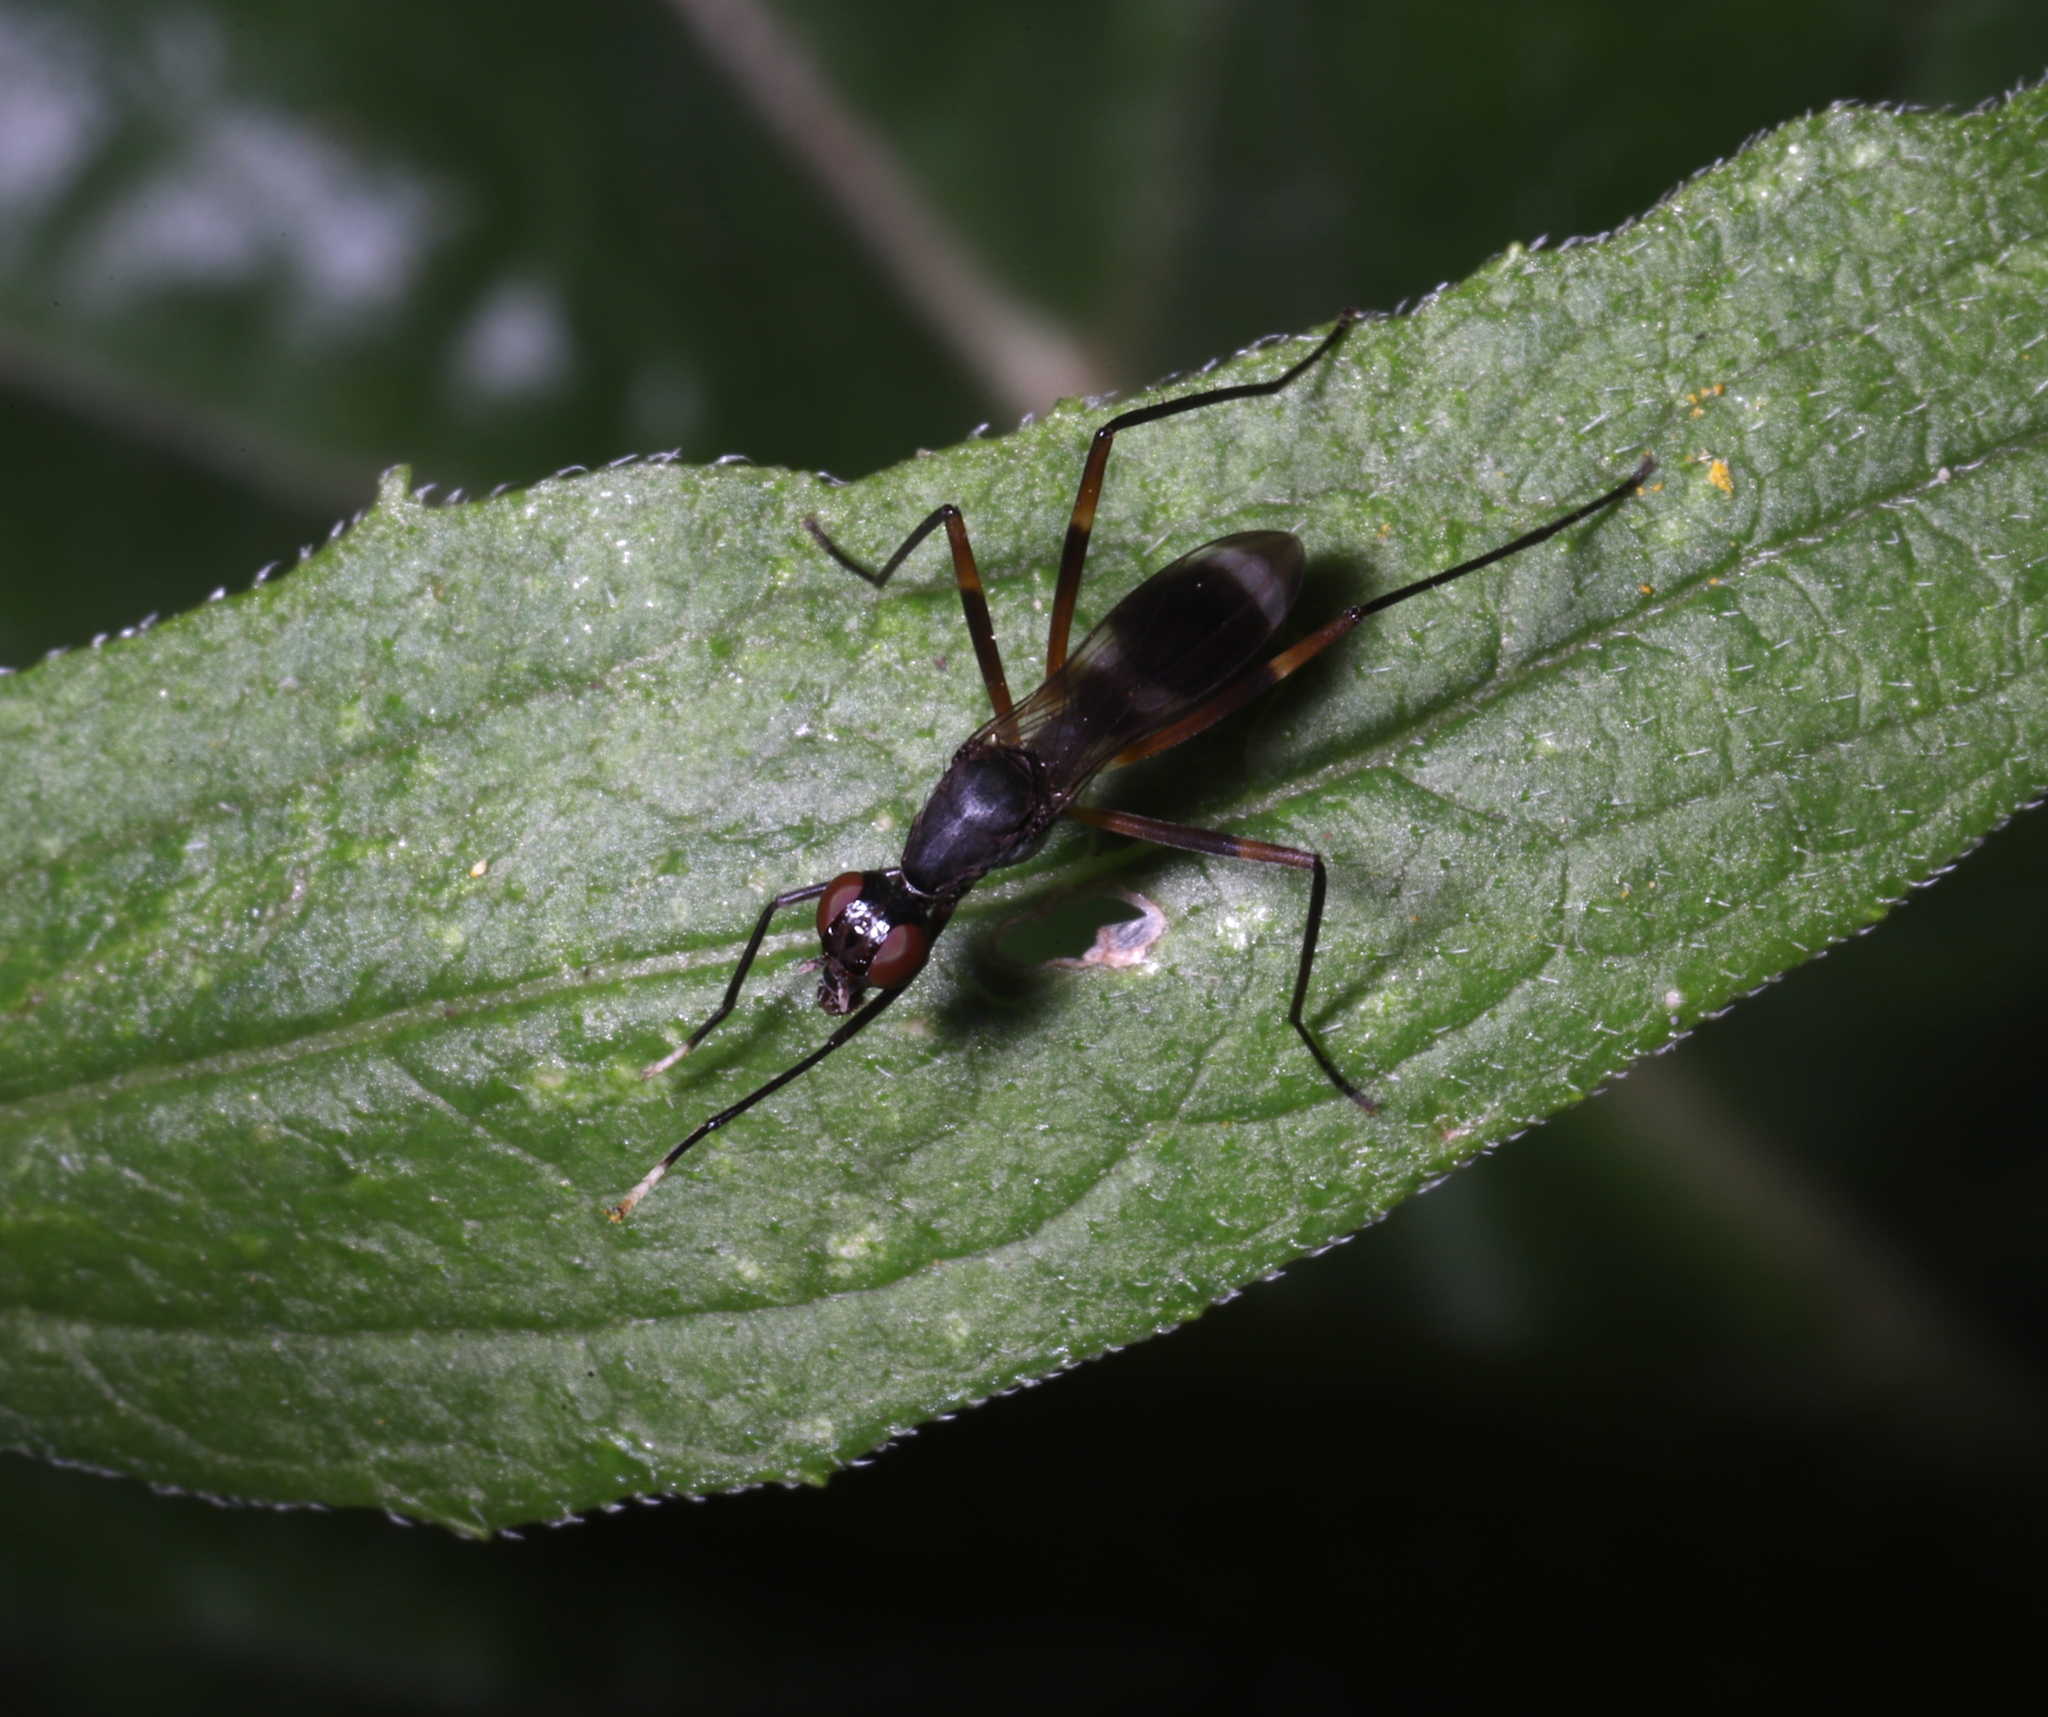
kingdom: Animalia
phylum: Arthropoda
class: Insecta
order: Diptera
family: Micropezidae
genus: Taeniaptera
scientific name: Taeniaptera trivittata
